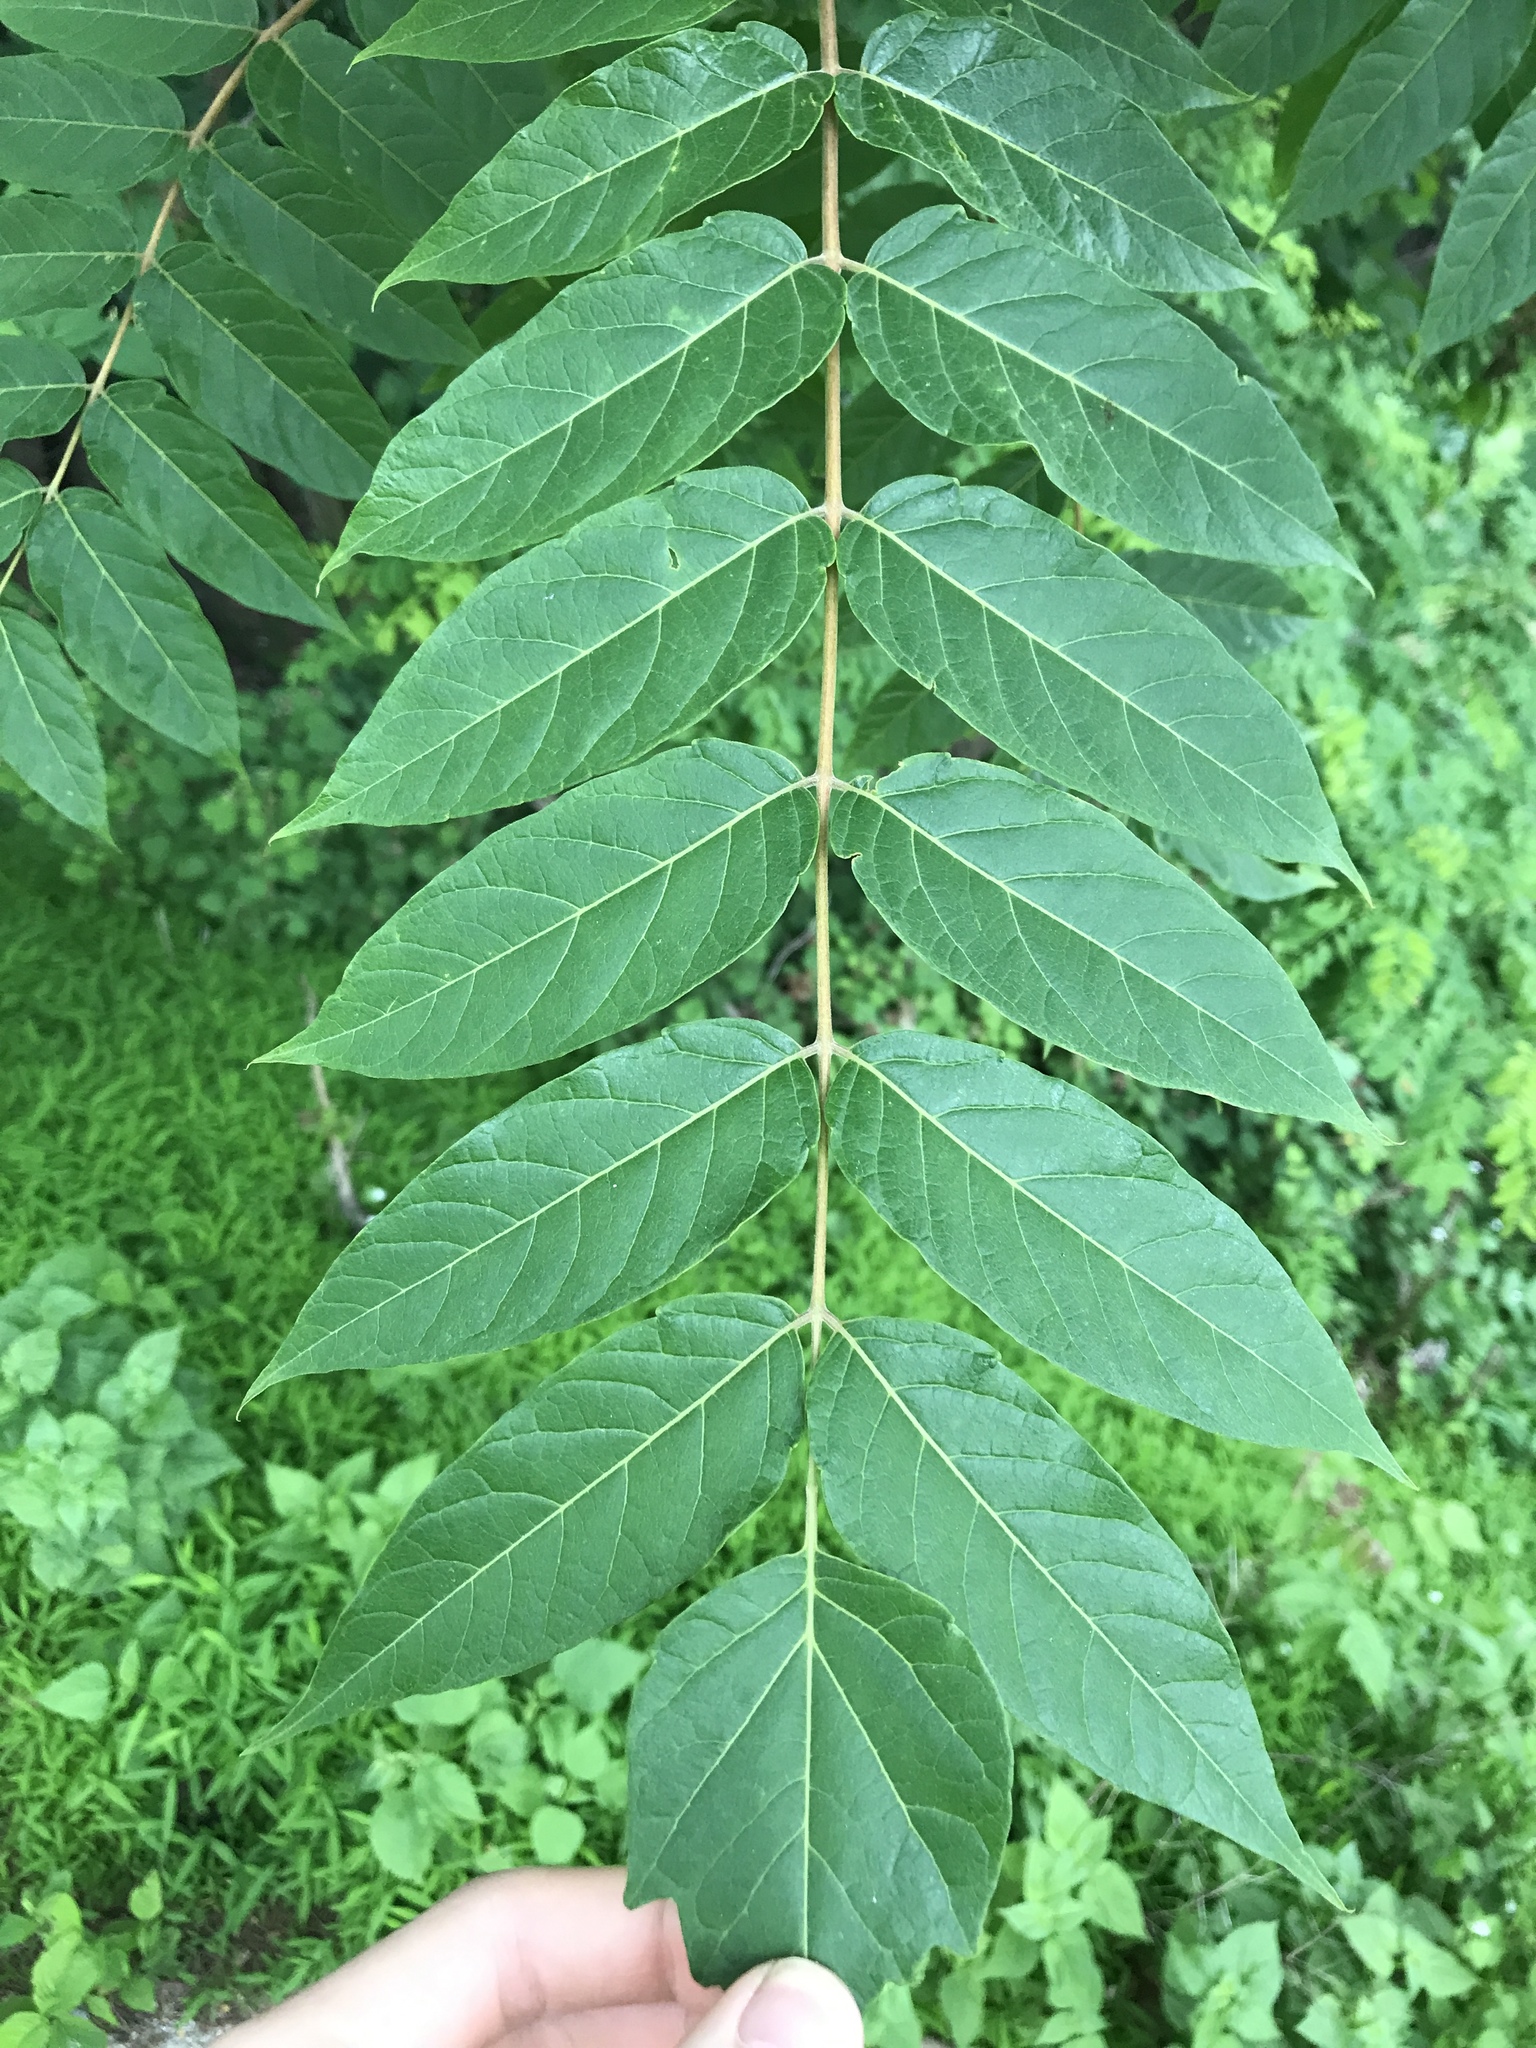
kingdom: Plantae
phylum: Tracheophyta
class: Magnoliopsida
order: Sapindales
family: Simaroubaceae
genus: Ailanthus
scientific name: Ailanthus altissima
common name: Tree-of-heaven
